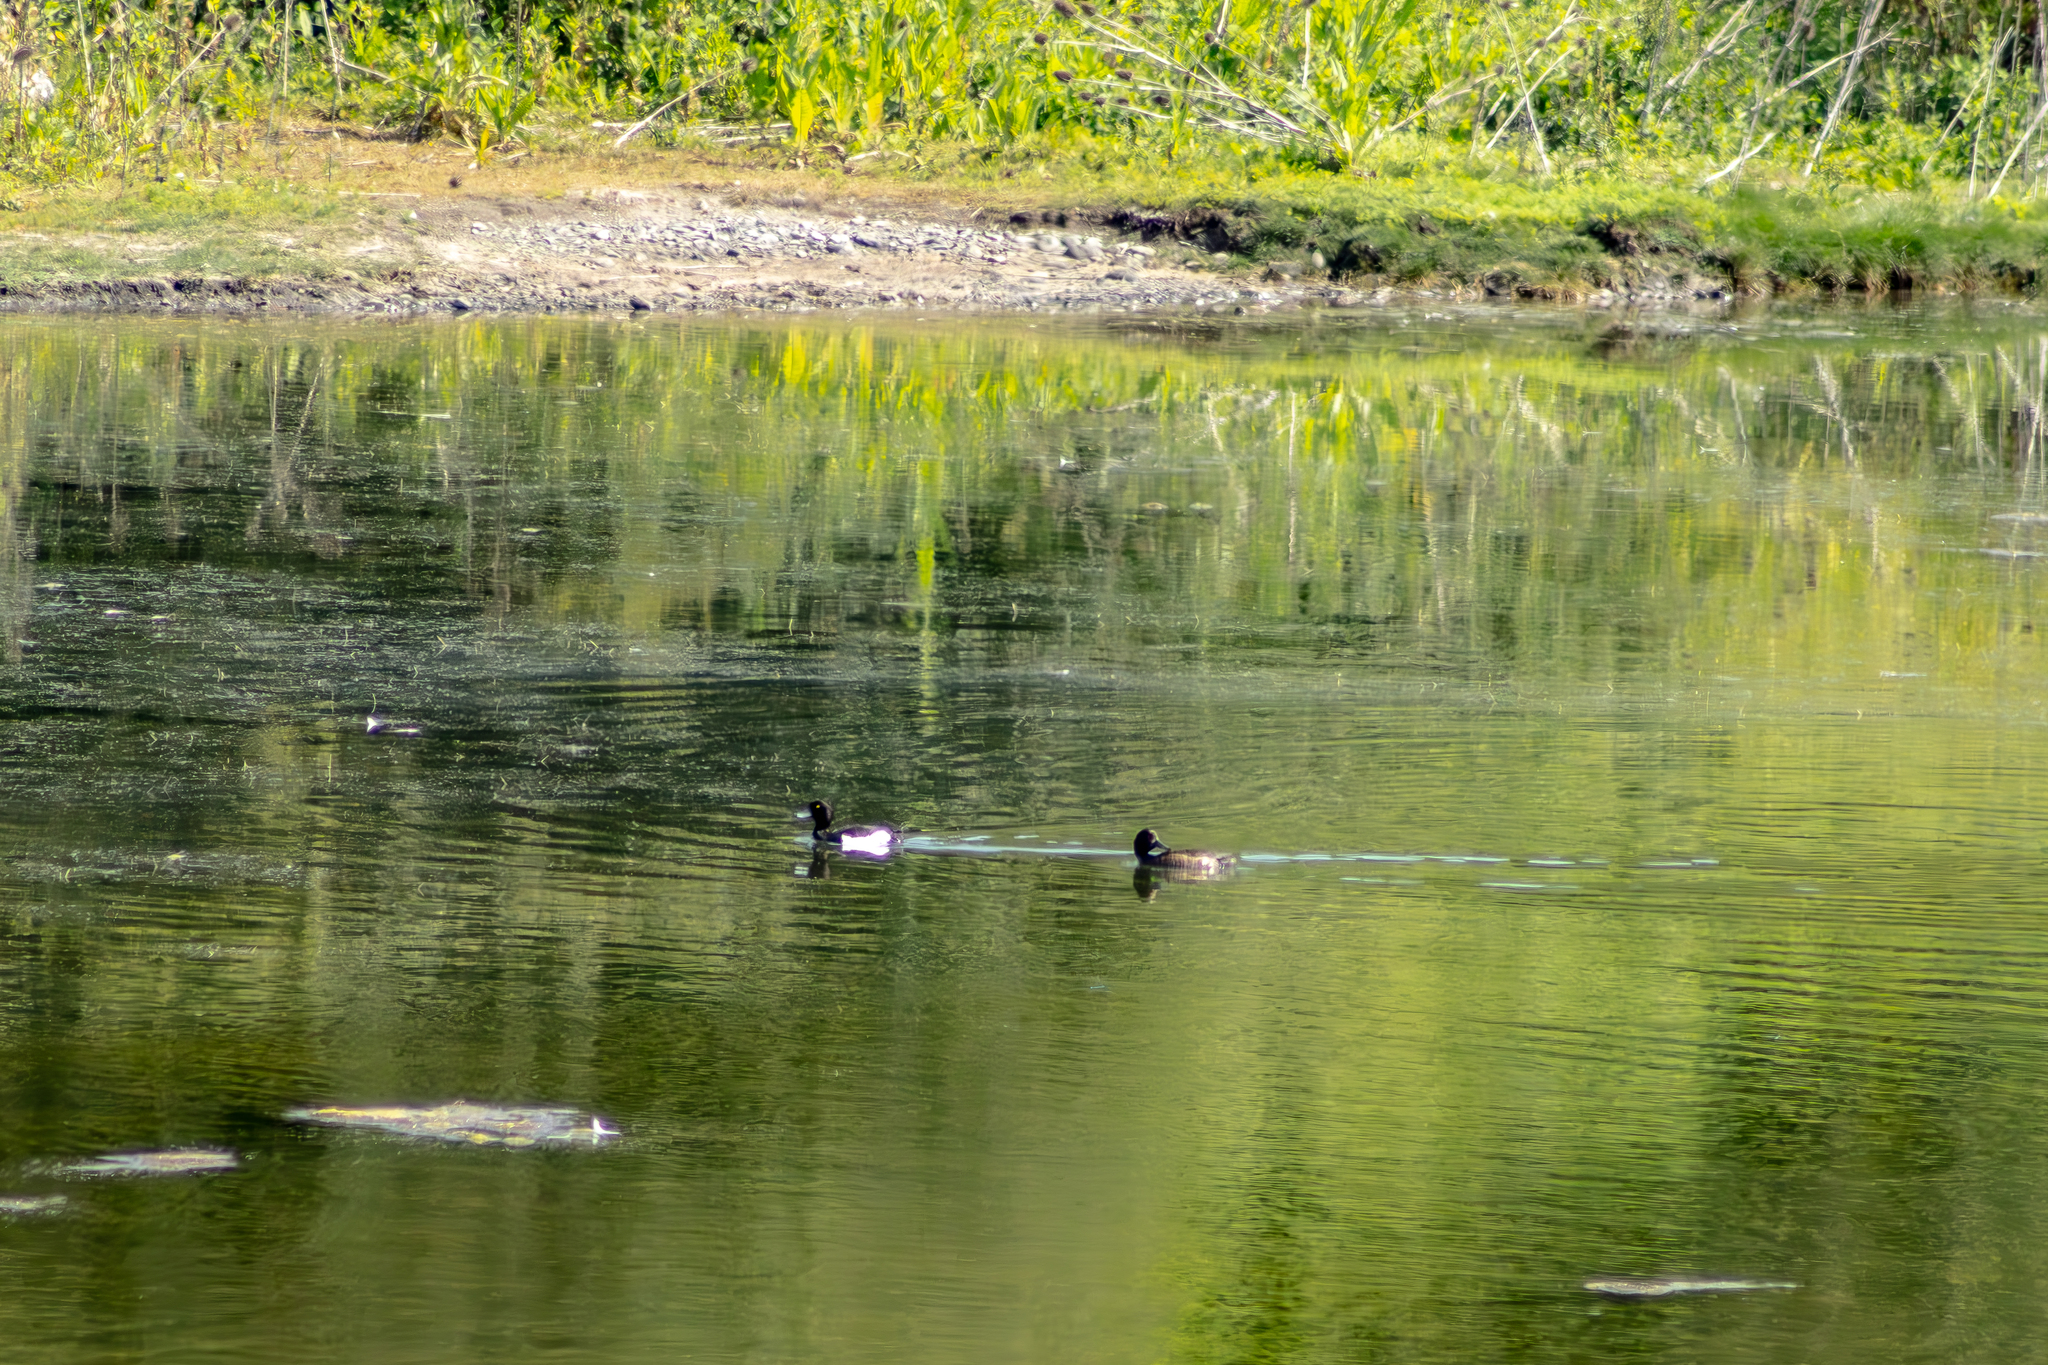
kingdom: Animalia
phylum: Chordata
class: Aves
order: Anseriformes
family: Anatidae
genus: Aythya
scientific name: Aythya fuligula
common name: Tufted duck
